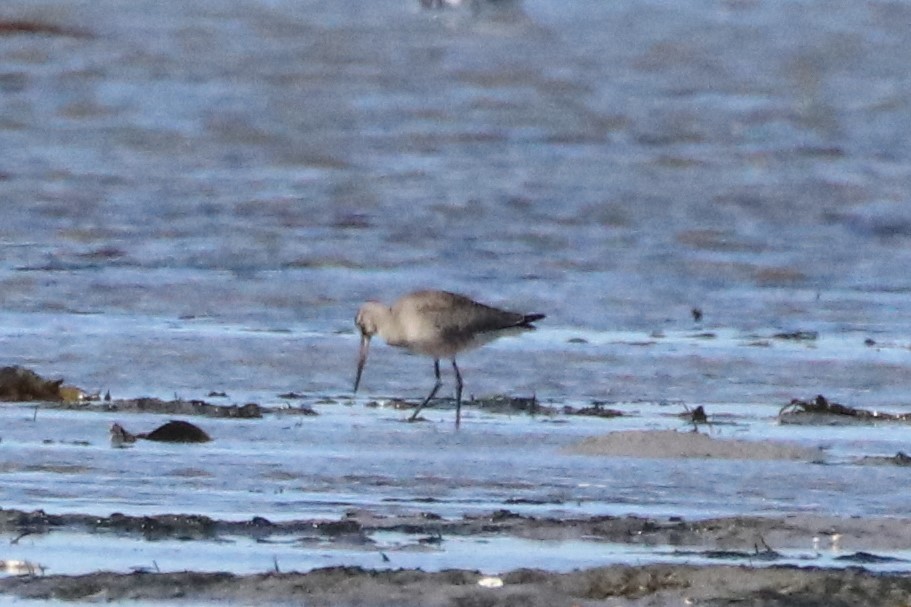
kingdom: Animalia
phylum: Chordata
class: Aves
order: Charadriiformes
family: Scolopacidae
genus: Limosa
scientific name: Limosa haemastica
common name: Hudsonian godwit
